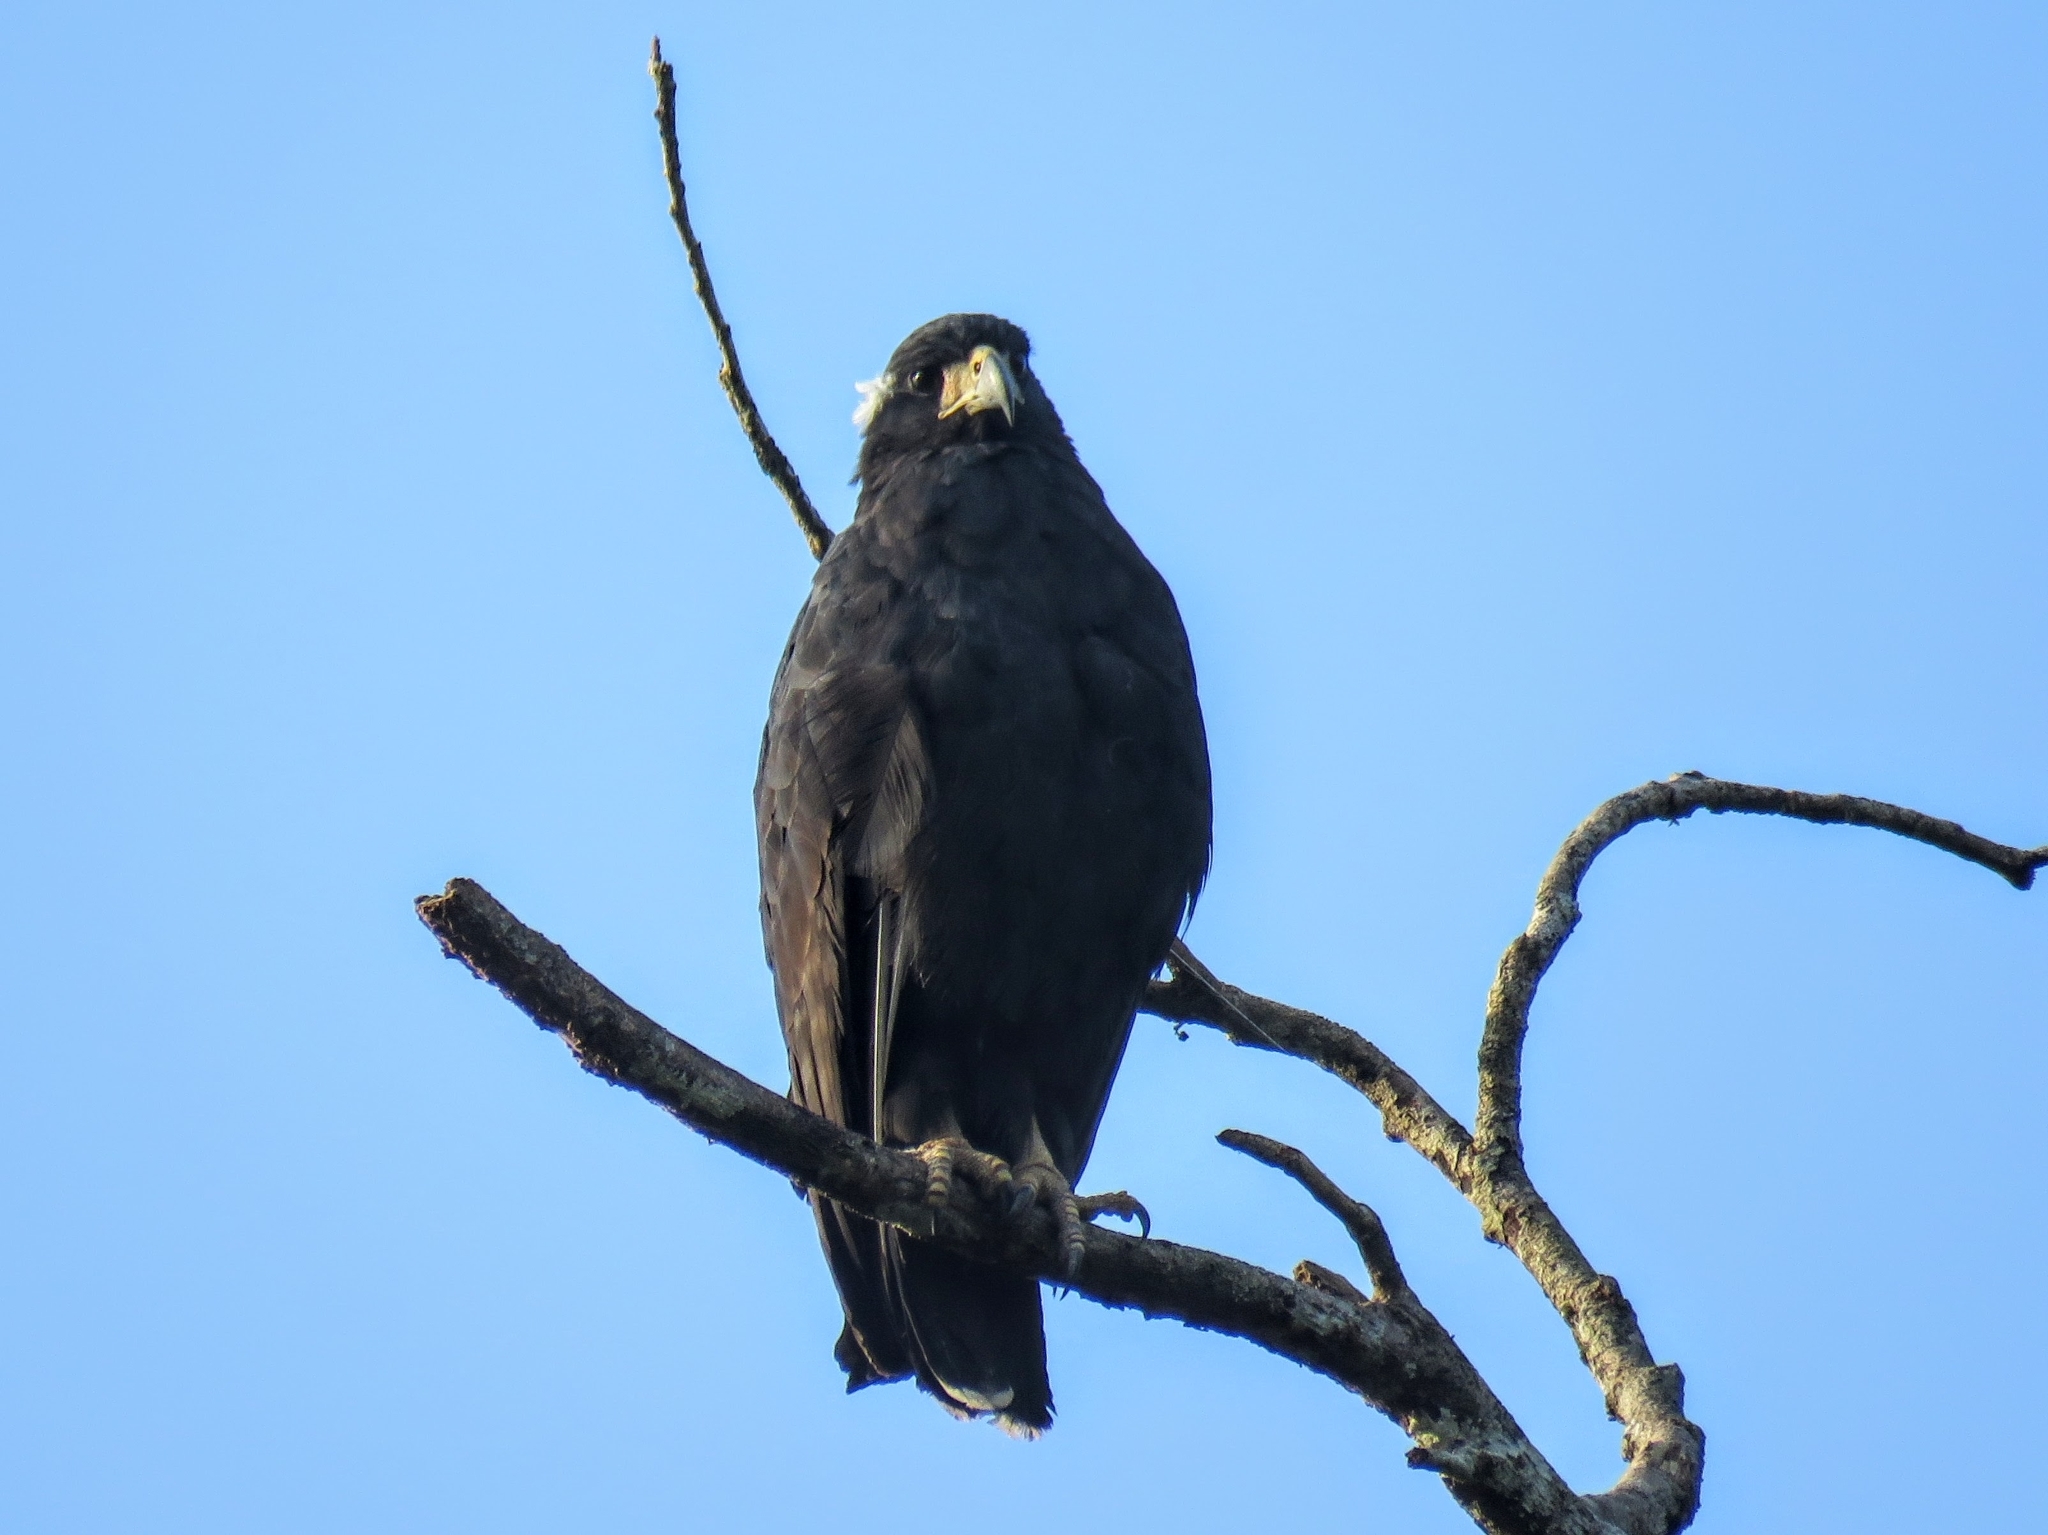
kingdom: Animalia
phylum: Chordata
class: Aves
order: Accipitriformes
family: Accipitridae
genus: Buteogallus
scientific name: Buteogallus urubitinga
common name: Great black hawk
